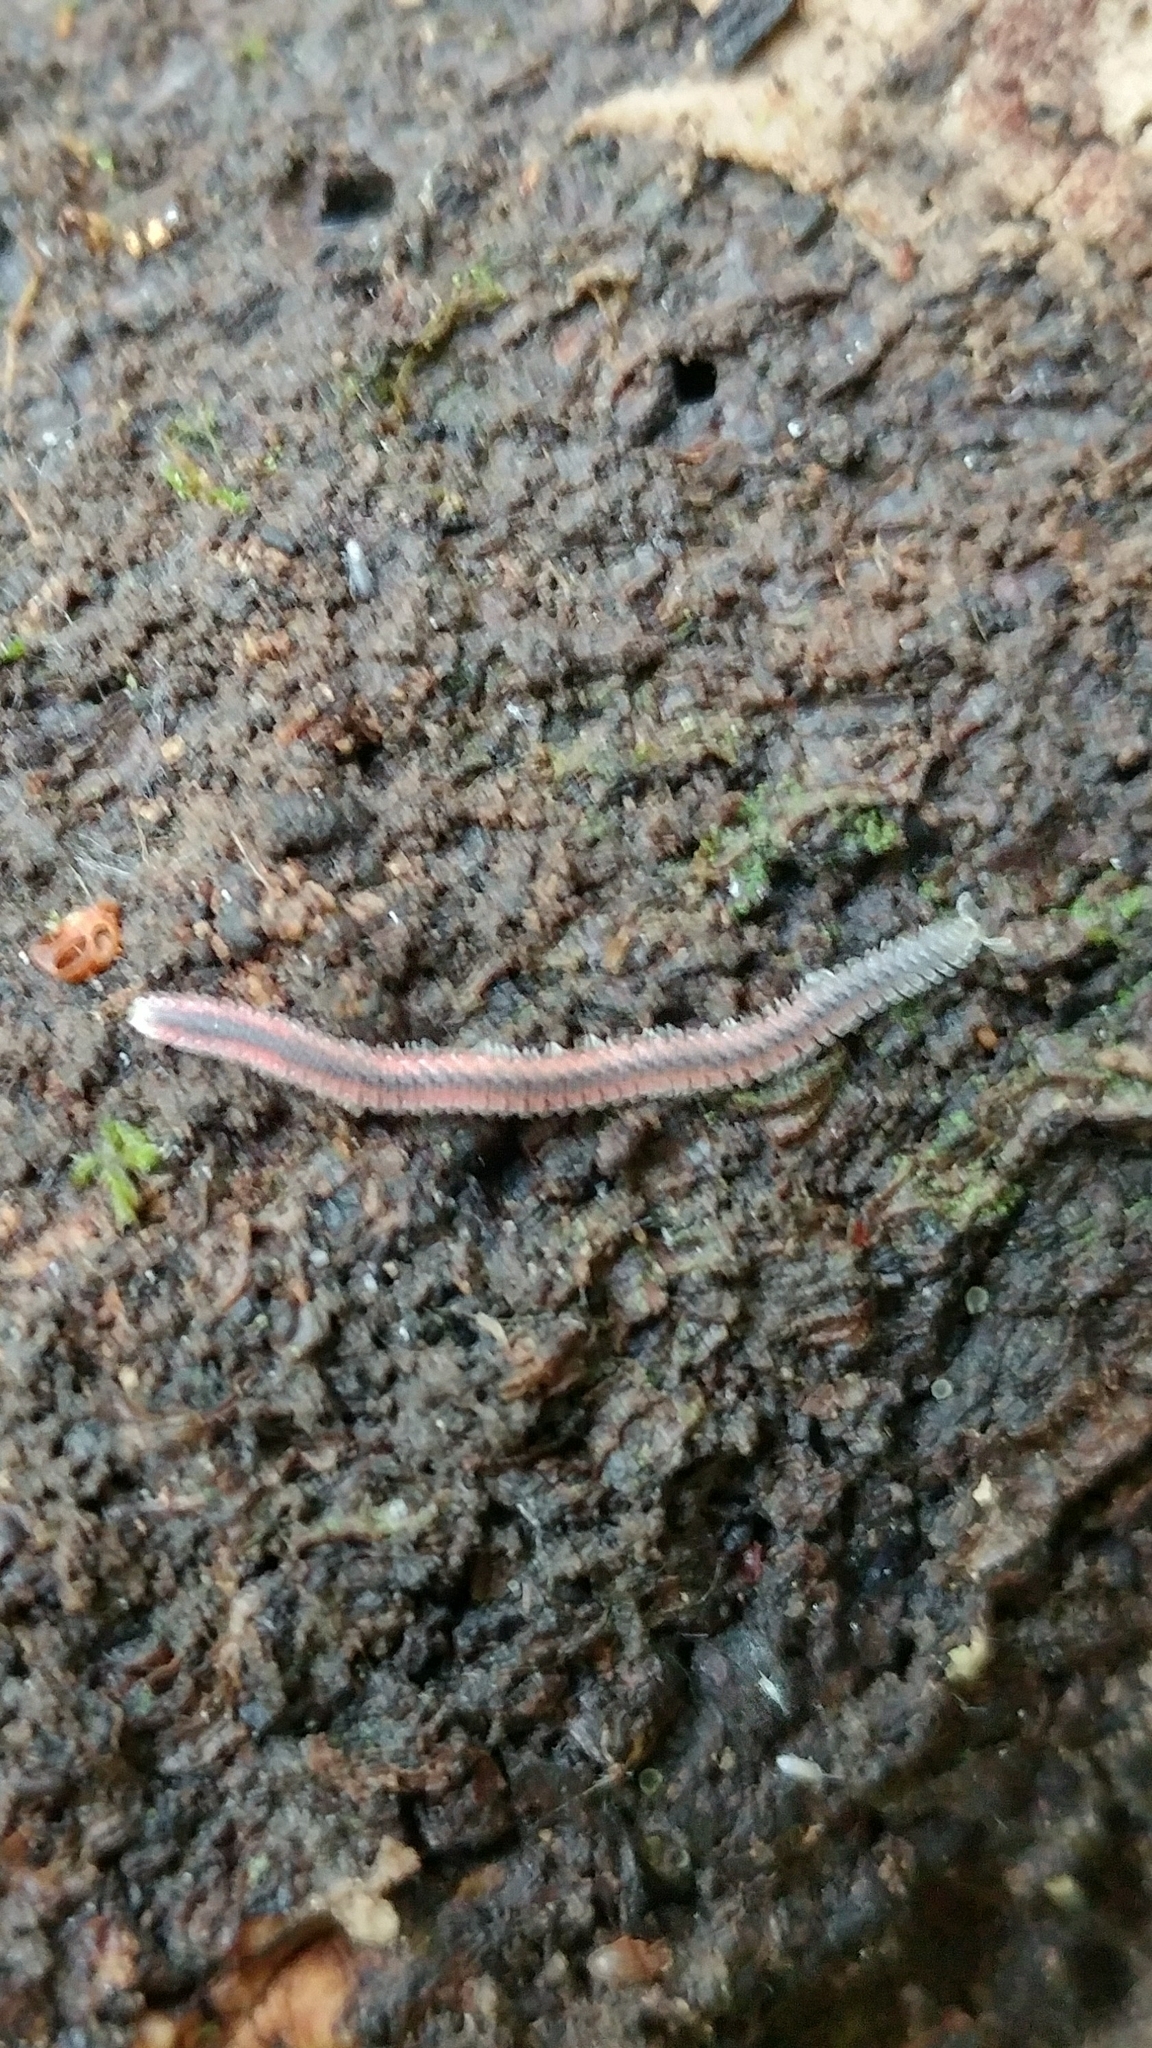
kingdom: Animalia
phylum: Arthropoda
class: Diplopoda
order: Platydesmida
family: Andrognathidae
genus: Gosodesmus
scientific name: Gosodesmus claremontus
